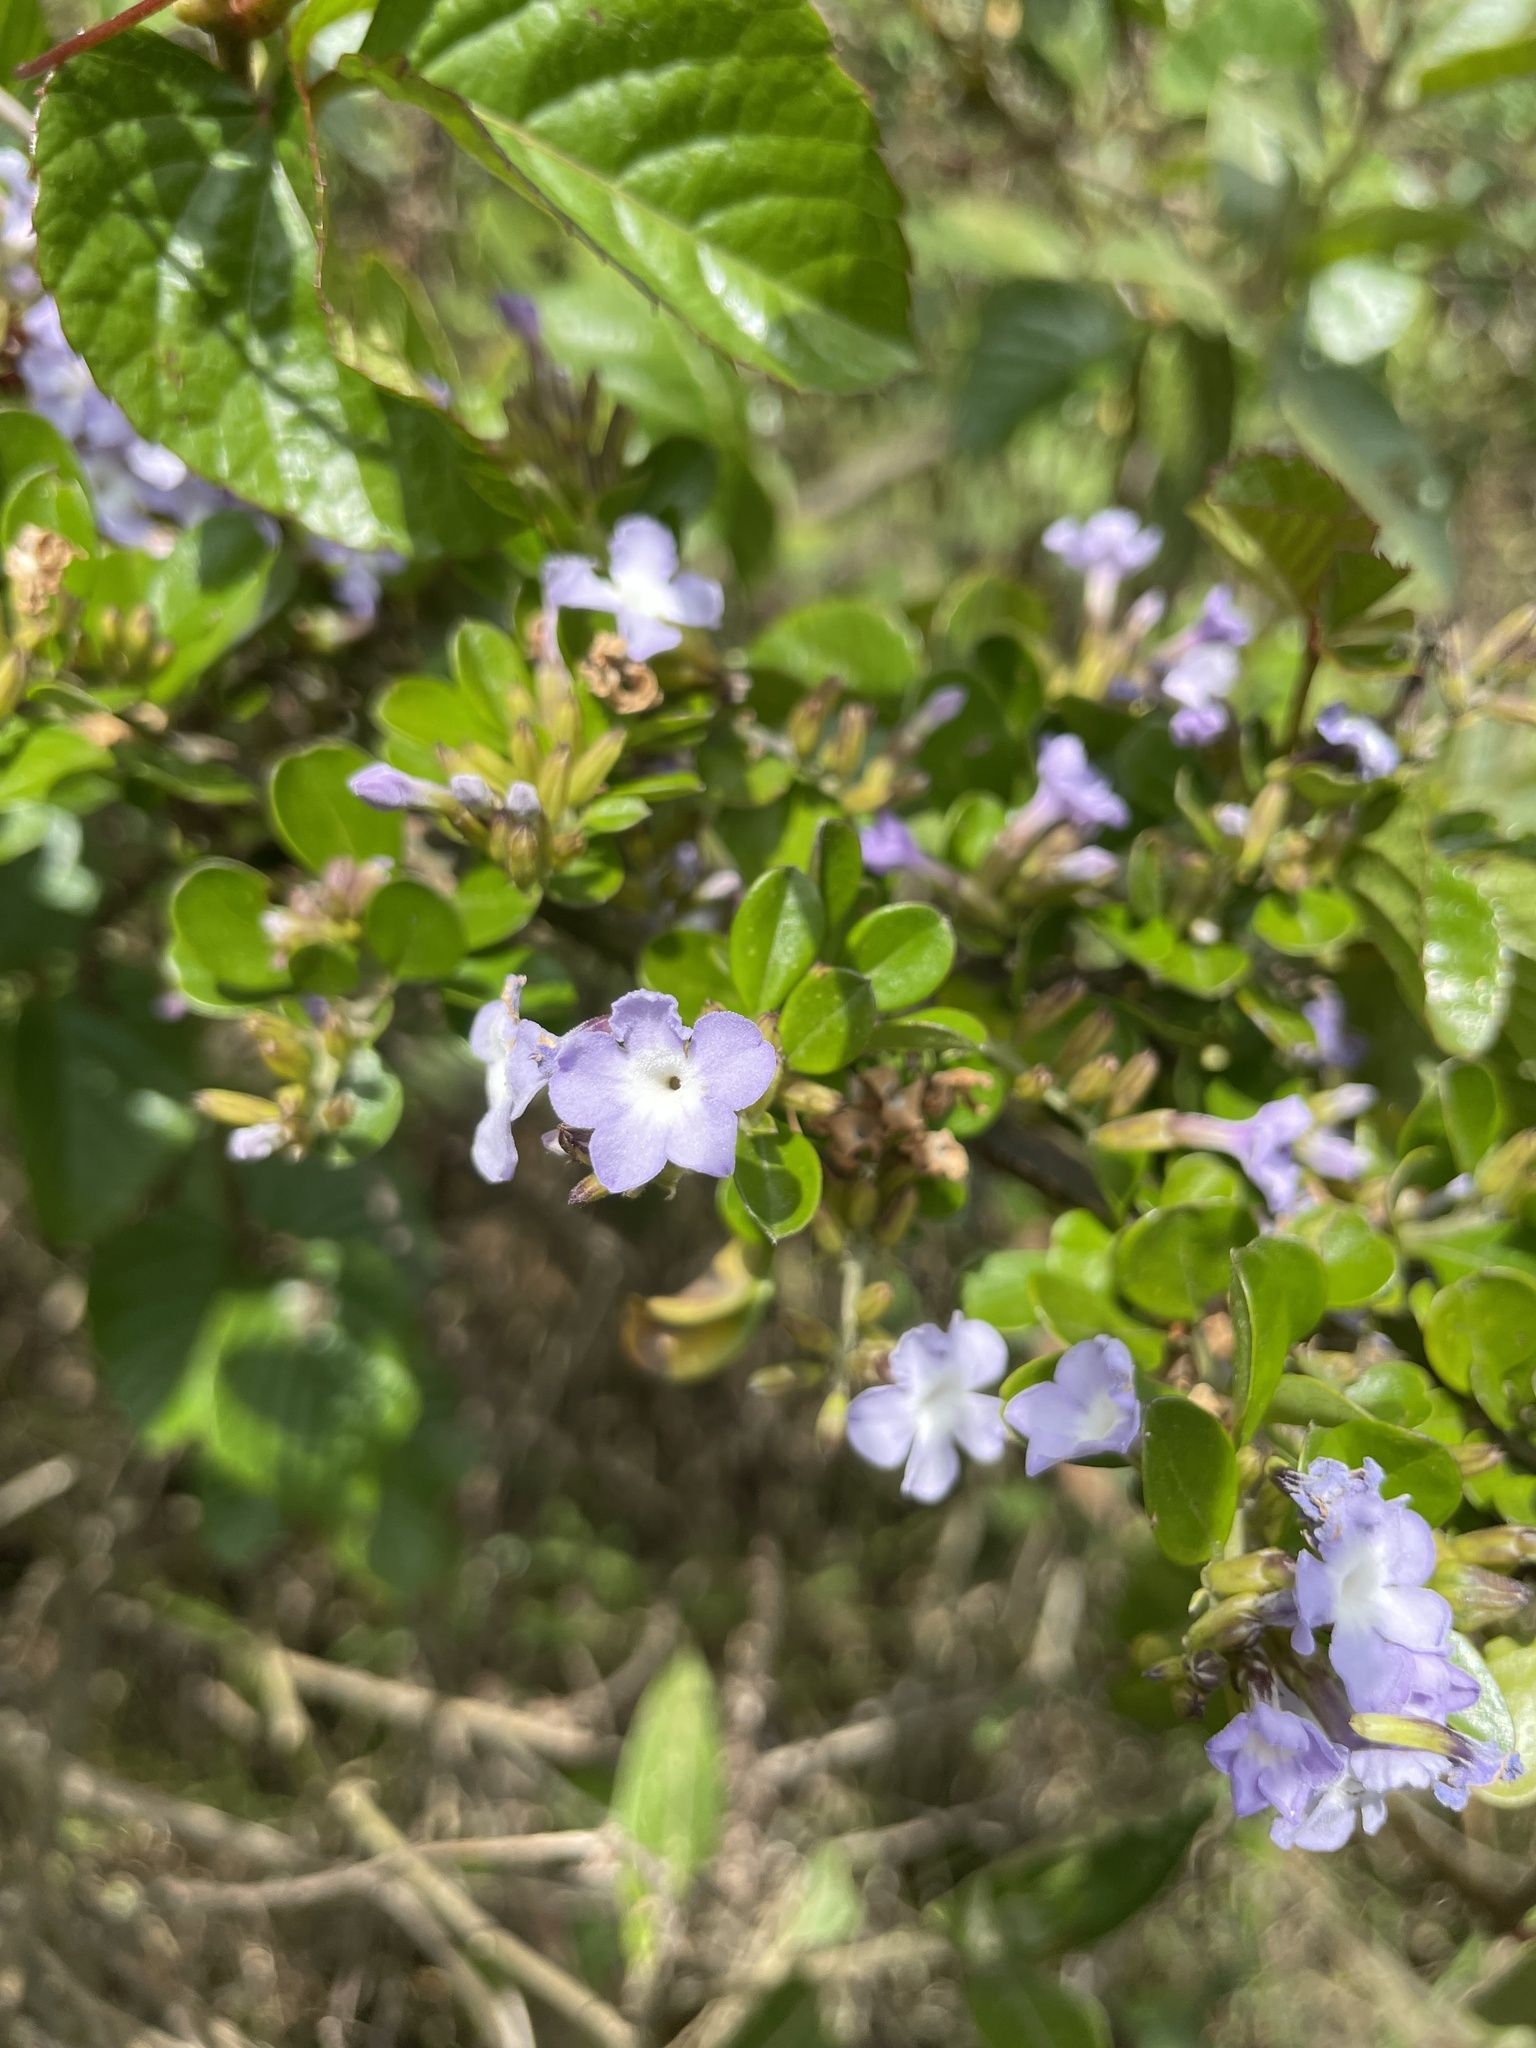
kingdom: Plantae
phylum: Tracheophyta
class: Magnoliopsida
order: Lamiales
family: Verbenaceae
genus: Duranta
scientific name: Duranta triacantha
